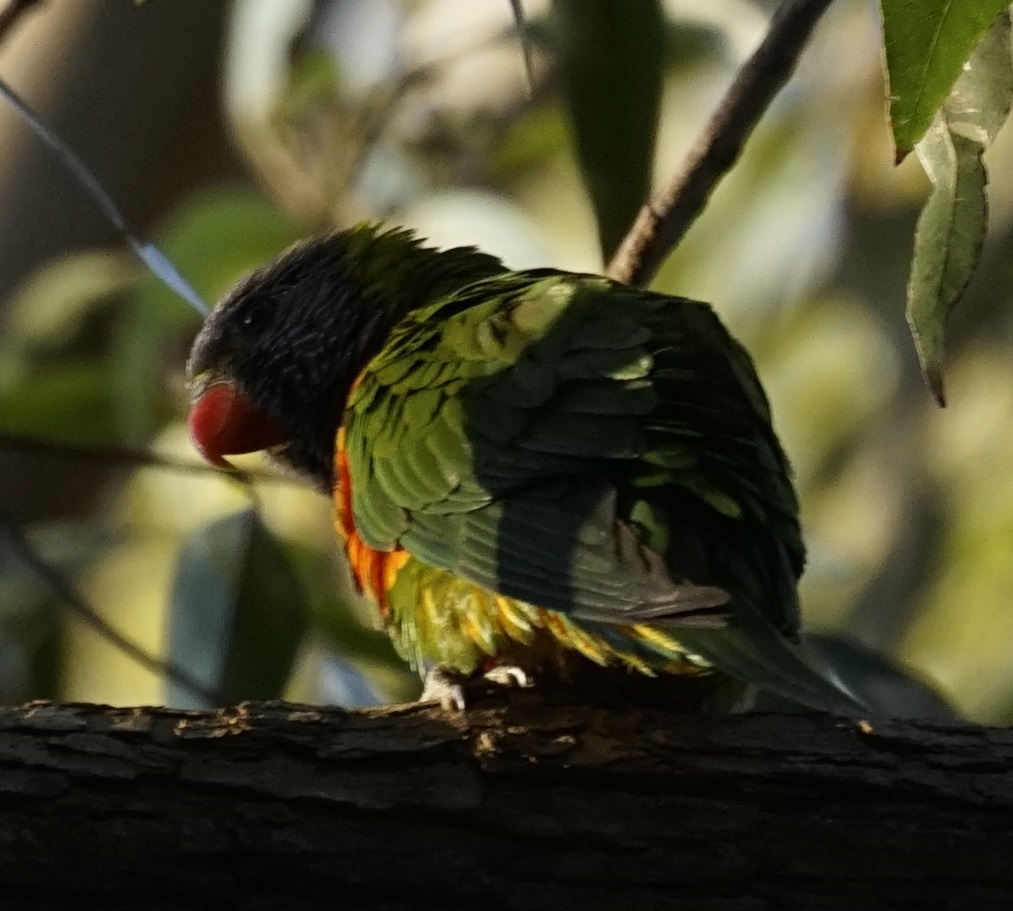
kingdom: Animalia
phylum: Chordata
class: Aves
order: Psittaciformes
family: Psittacidae
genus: Trichoglossus
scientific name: Trichoglossus haematodus
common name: Coconut lorikeet
